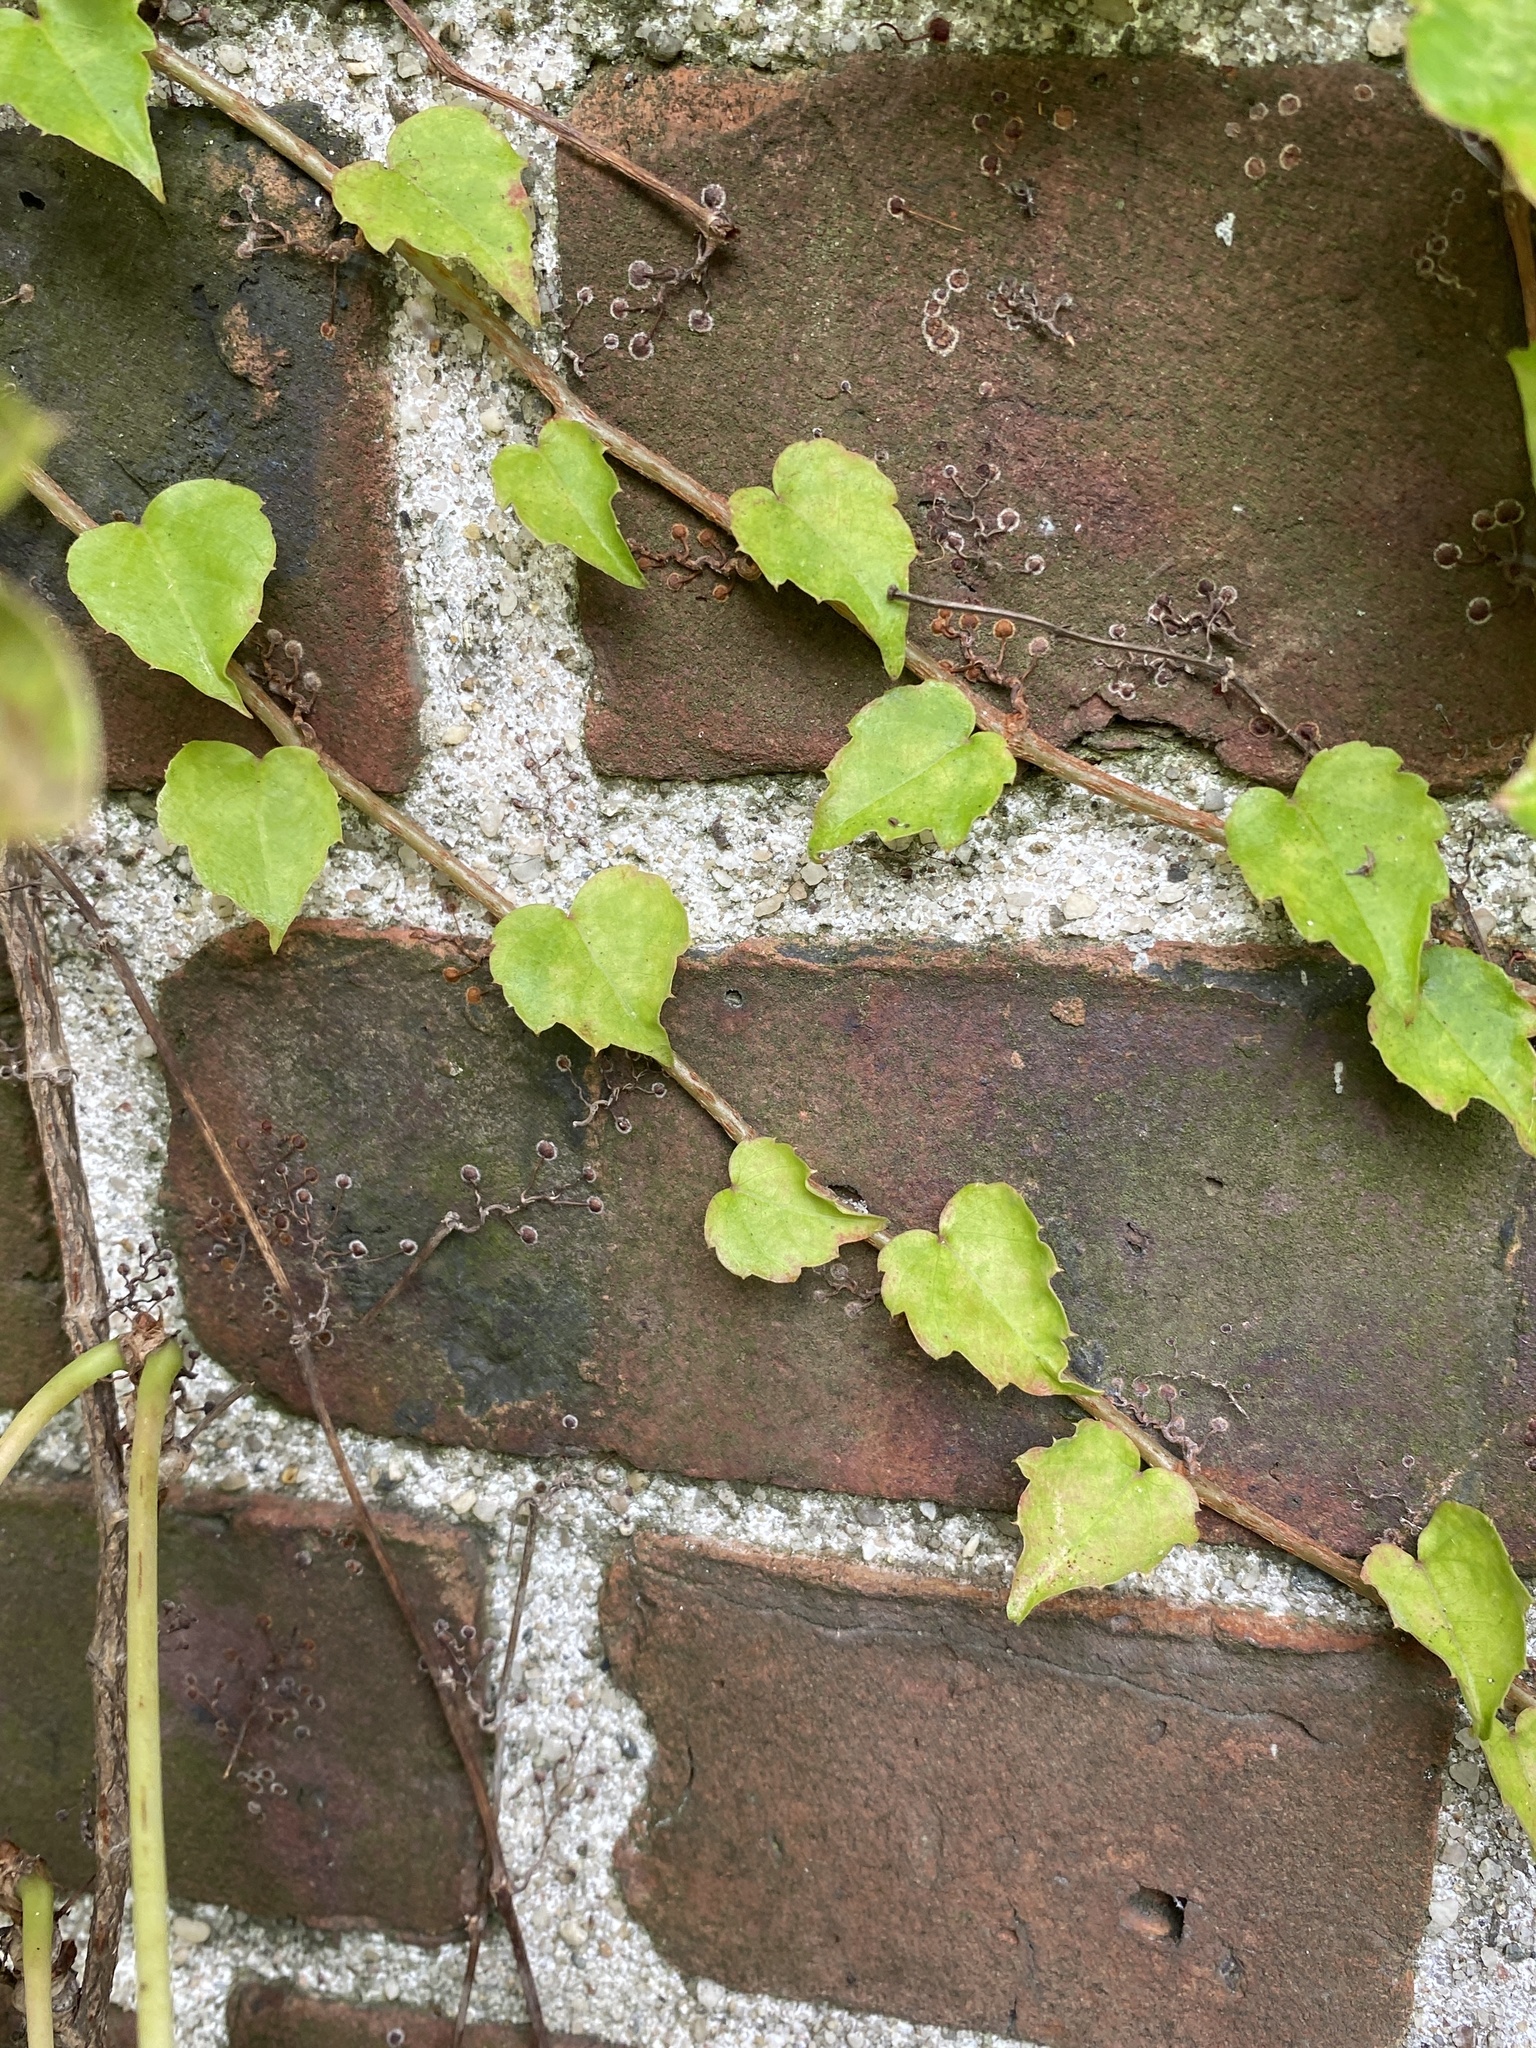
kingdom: Plantae
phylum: Tracheophyta
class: Magnoliopsida
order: Vitales
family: Vitaceae
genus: Parthenocissus
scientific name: Parthenocissus tricuspidata
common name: Boston ivy
